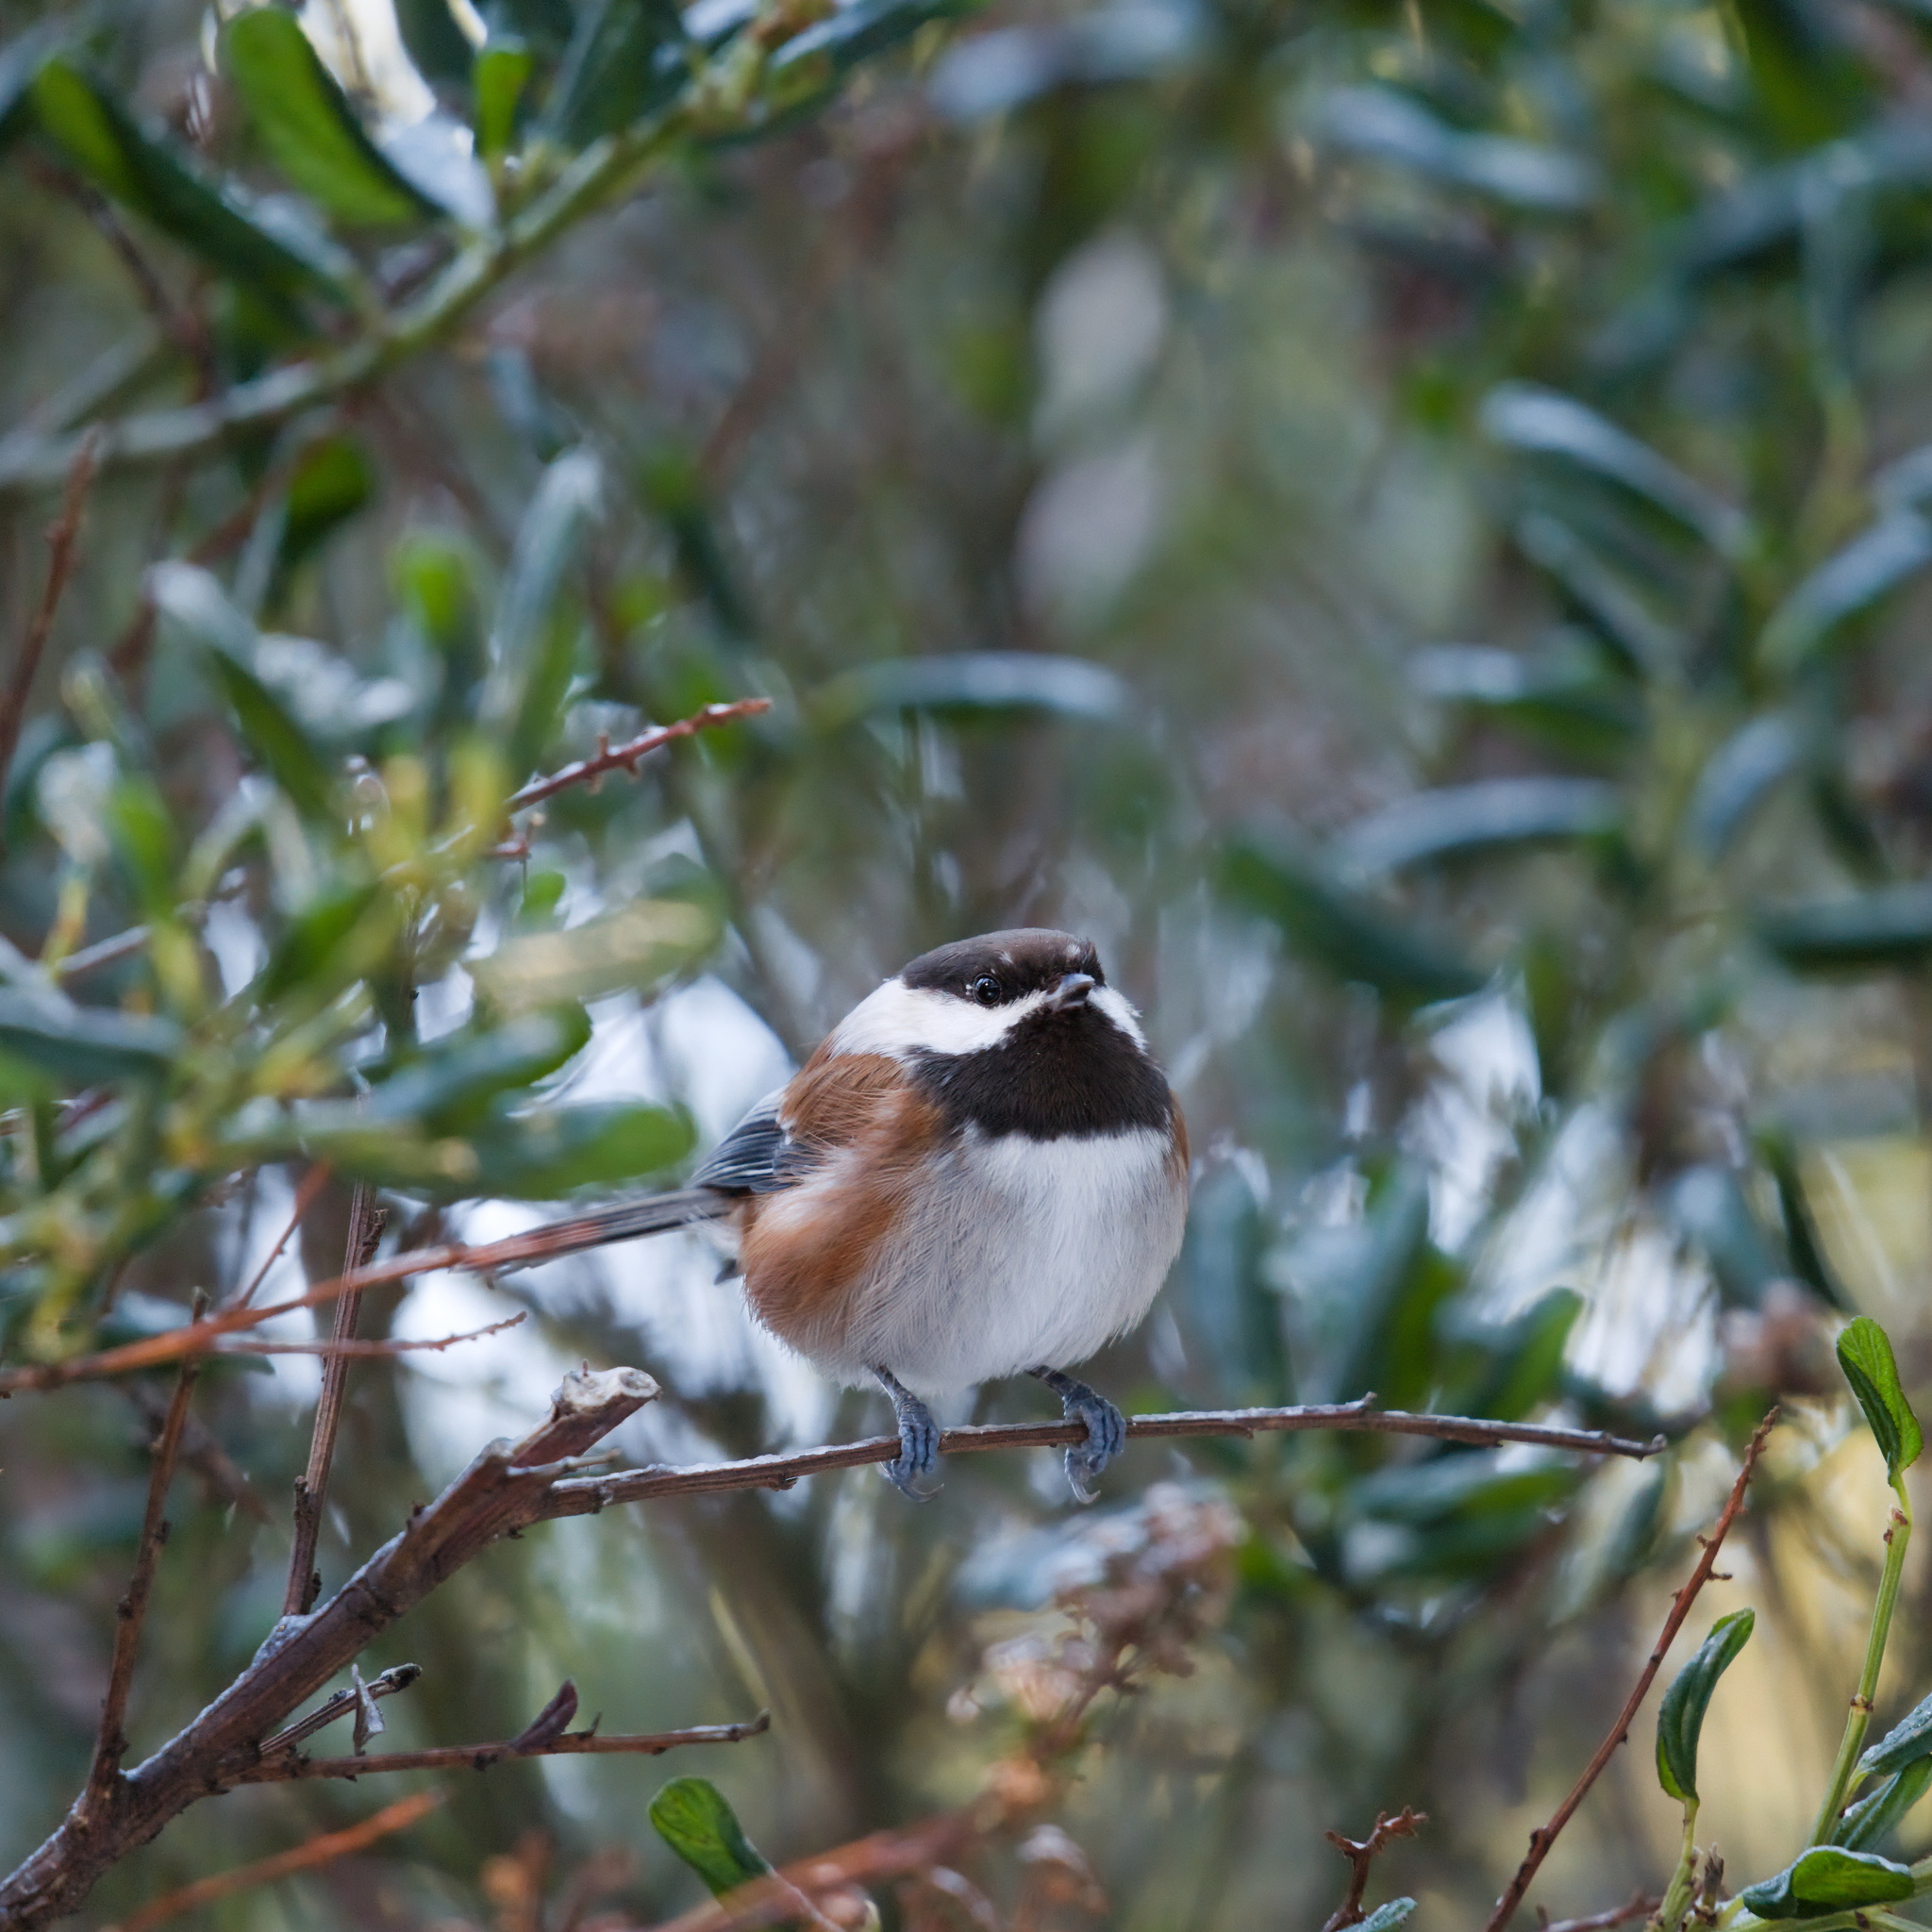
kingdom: Animalia
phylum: Chordata
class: Aves
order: Passeriformes
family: Paridae
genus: Poecile
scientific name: Poecile rufescens
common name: Chestnut-backed chickadee
